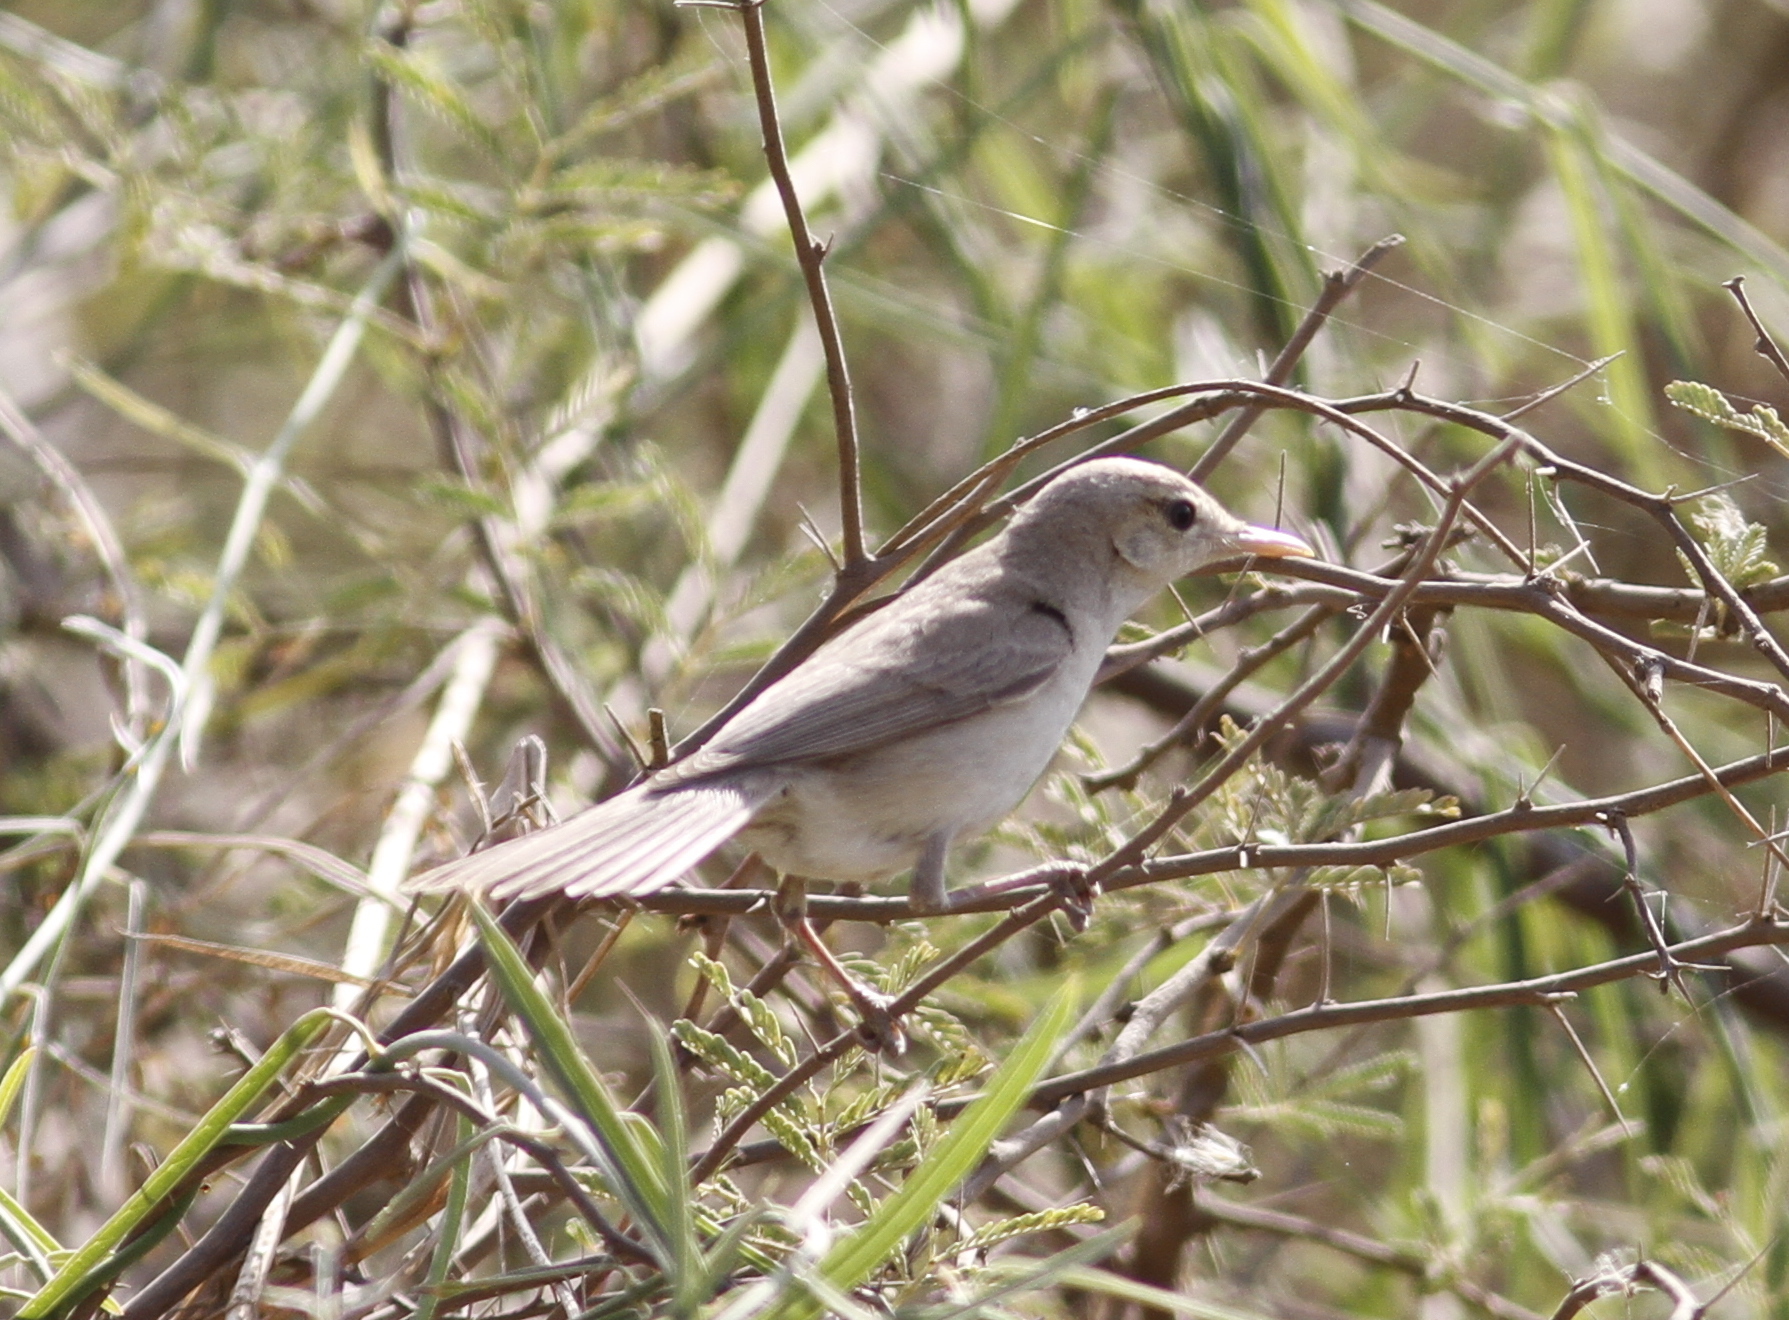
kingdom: Animalia
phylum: Chordata
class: Aves
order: Passeriformes
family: Acrocephalidae
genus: Iduna
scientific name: Iduna pallida
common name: Eastern olivaceous warbler
